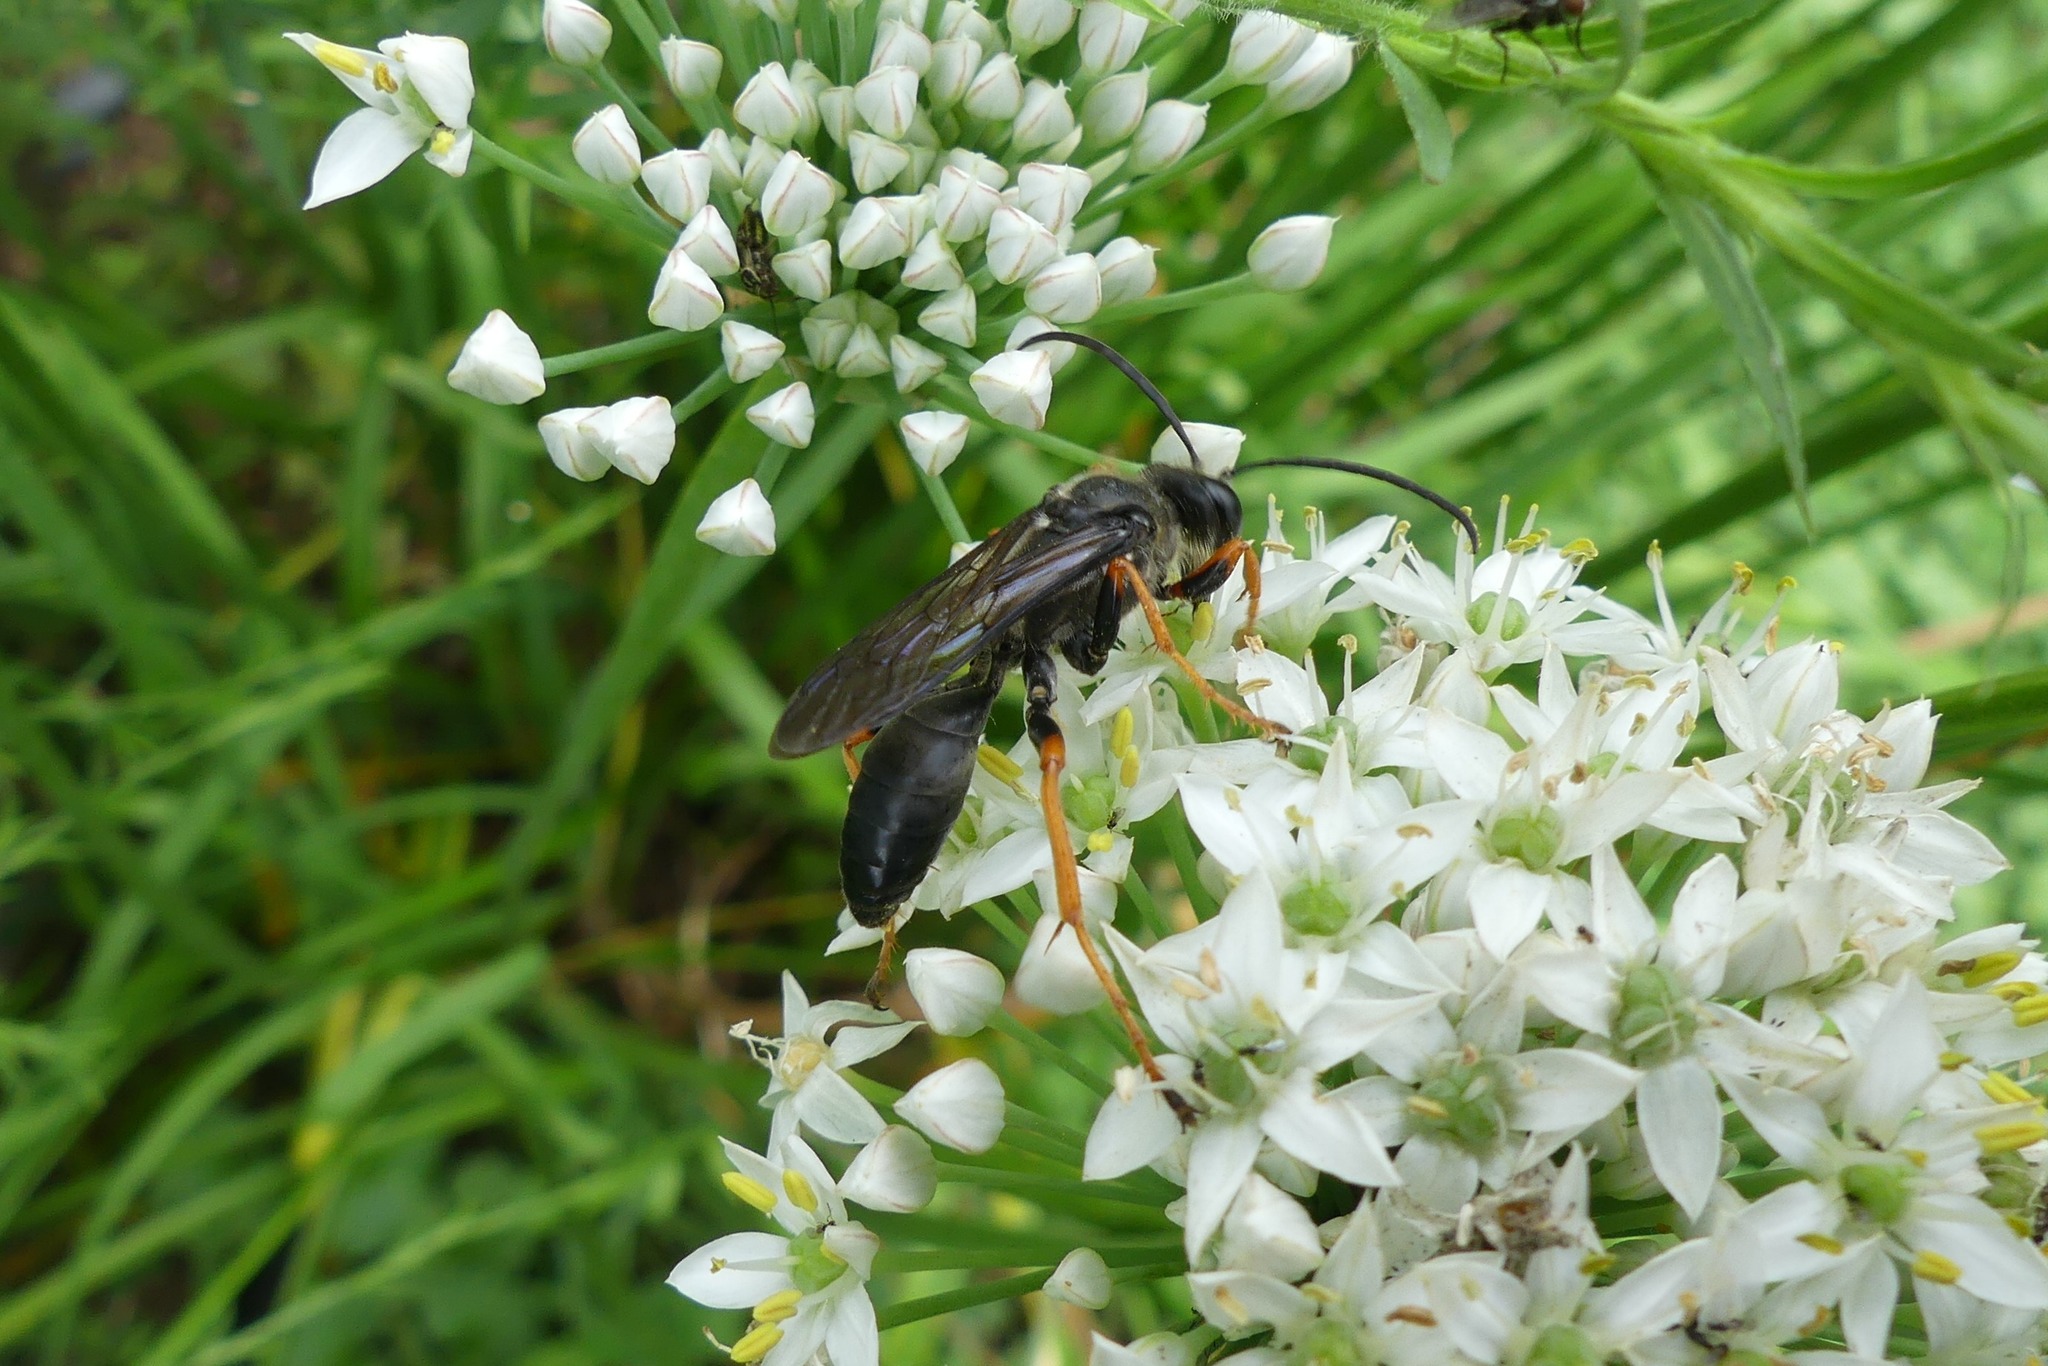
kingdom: Animalia
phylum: Arthropoda
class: Insecta
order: Hymenoptera
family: Sphecidae
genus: Sphex
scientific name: Sphex nudus
